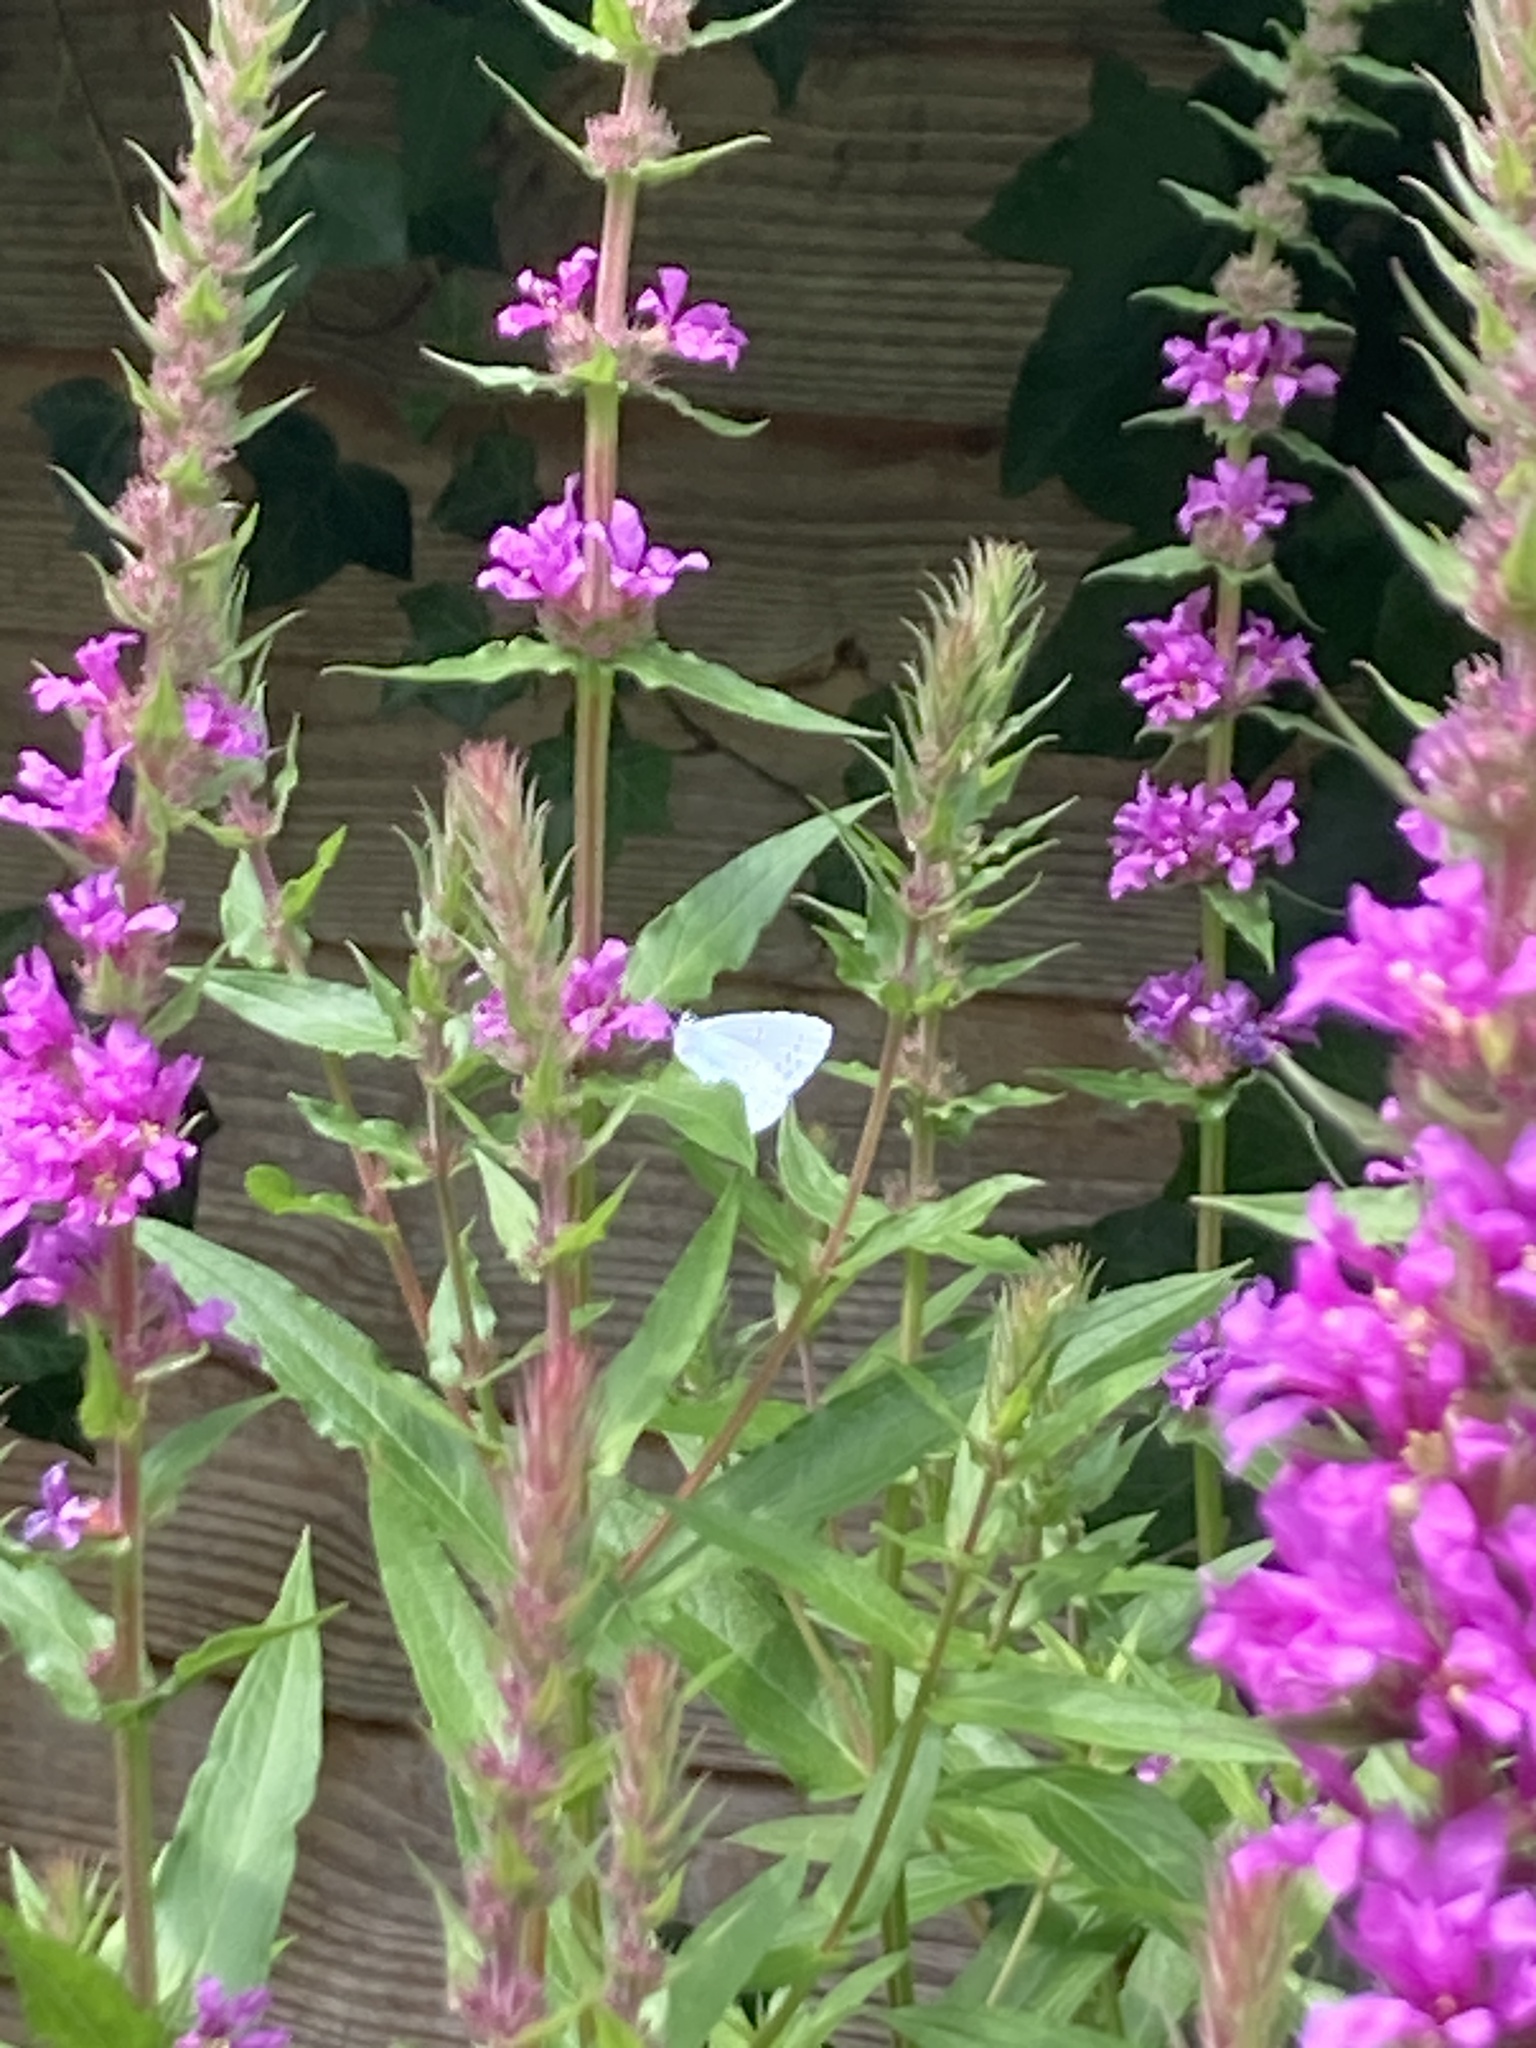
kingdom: Plantae
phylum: Tracheophyta
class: Magnoliopsida
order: Myrtales
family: Lythraceae
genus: Lythrum
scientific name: Lythrum salicaria
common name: Purple loosestrife
